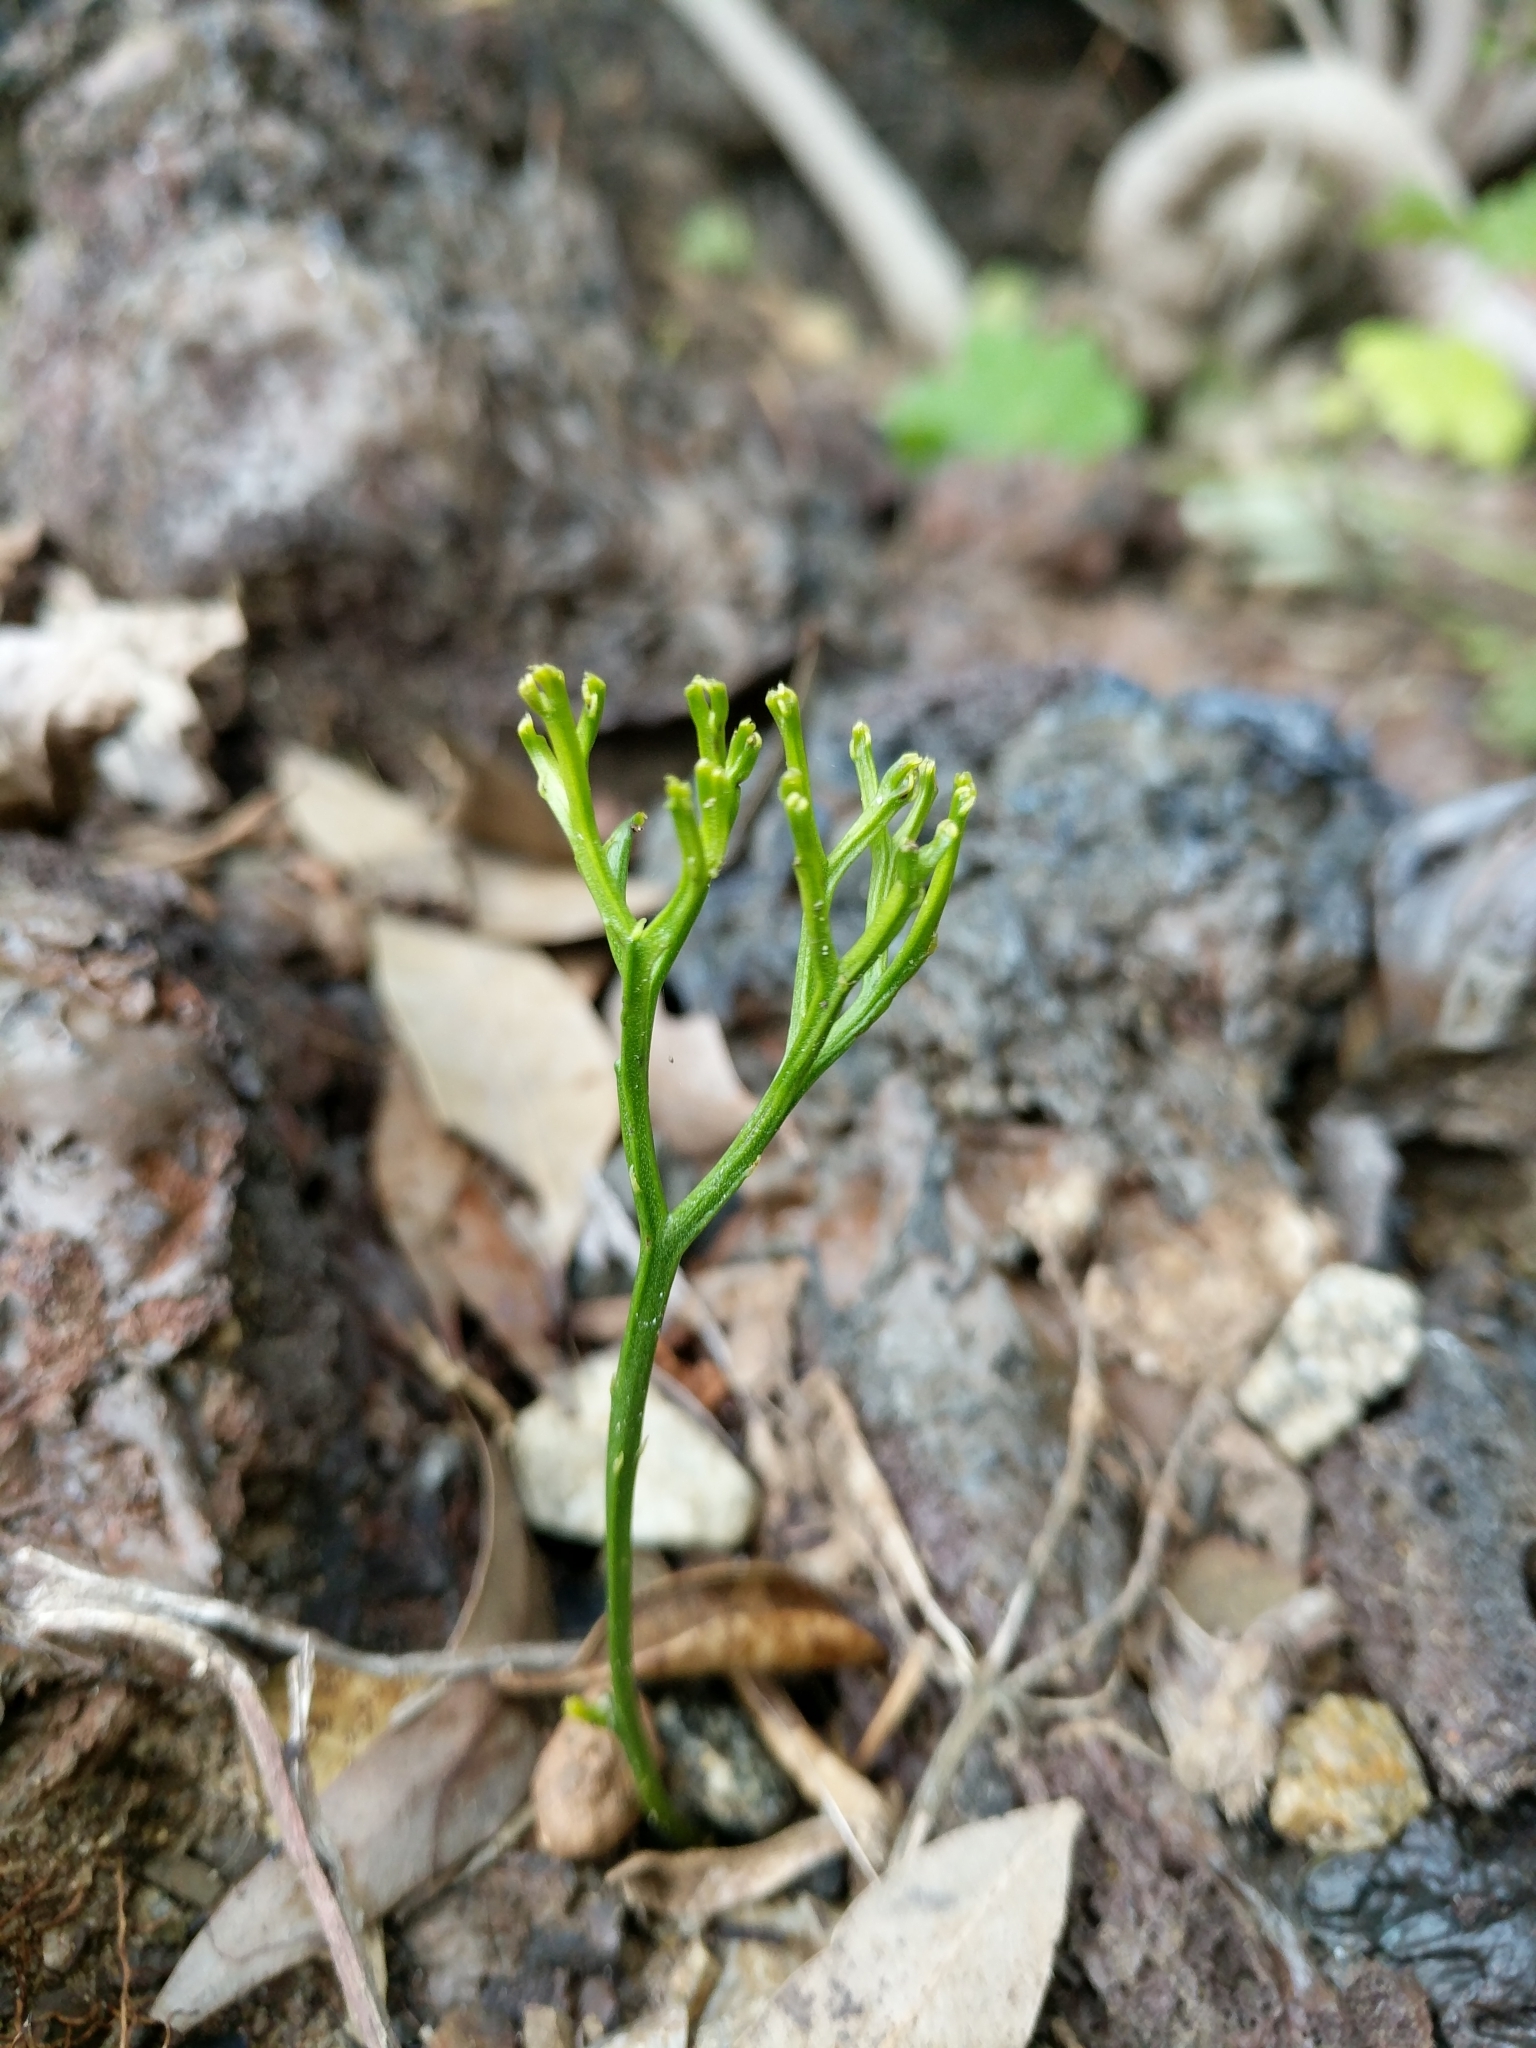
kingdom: Plantae
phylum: Tracheophyta
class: Polypodiopsida
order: Psilotales
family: Psilotaceae
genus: Psilotum
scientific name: Psilotum nudum
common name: Skeleton fork fern
